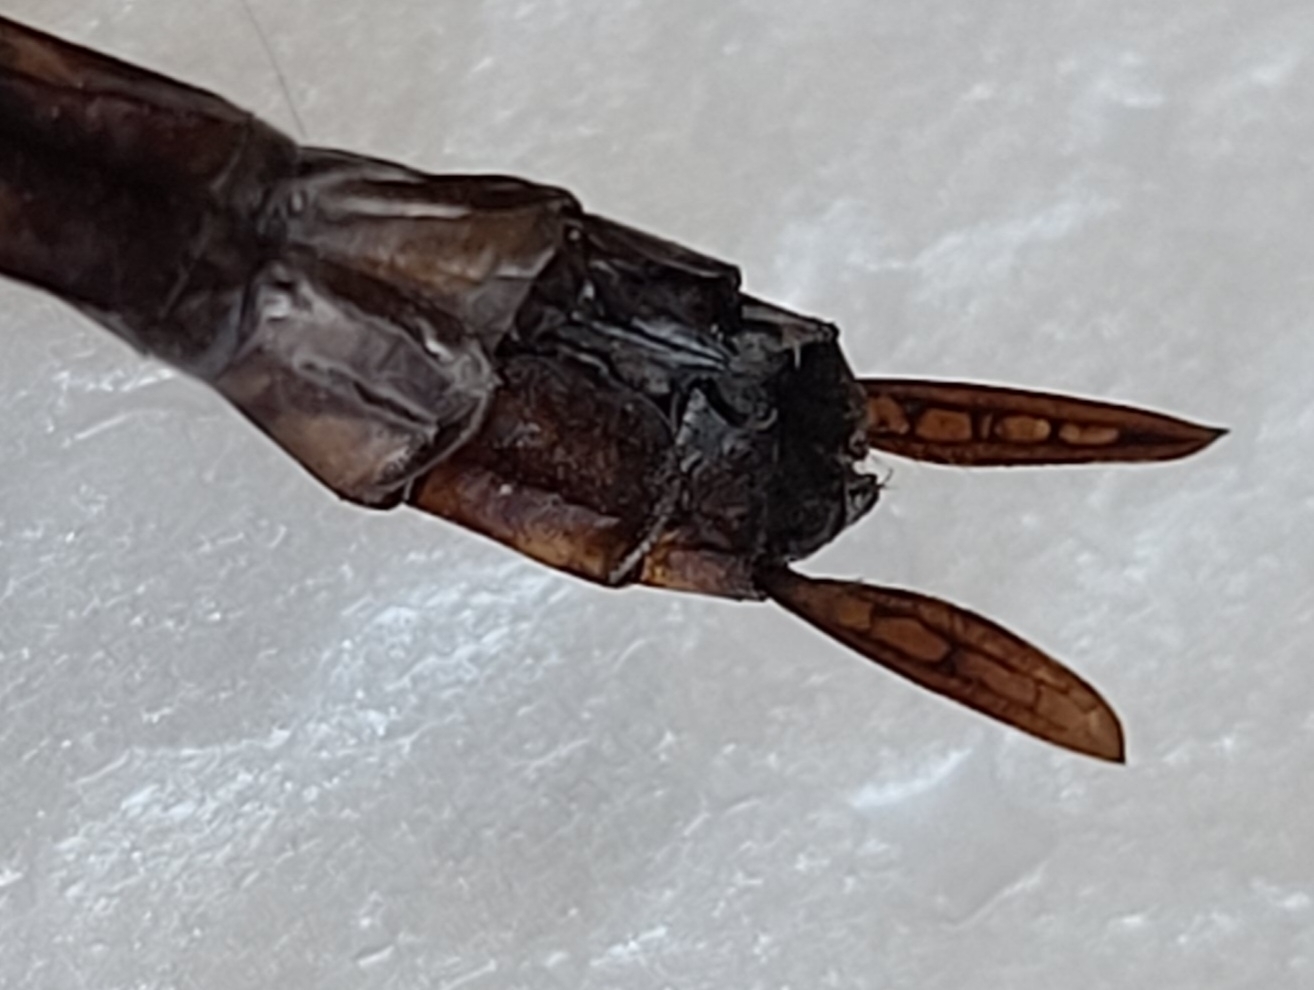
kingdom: Animalia
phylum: Arthropoda
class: Insecta
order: Odonata
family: Aeshnidae
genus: Anax
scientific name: Anax junius
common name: Common green darner
